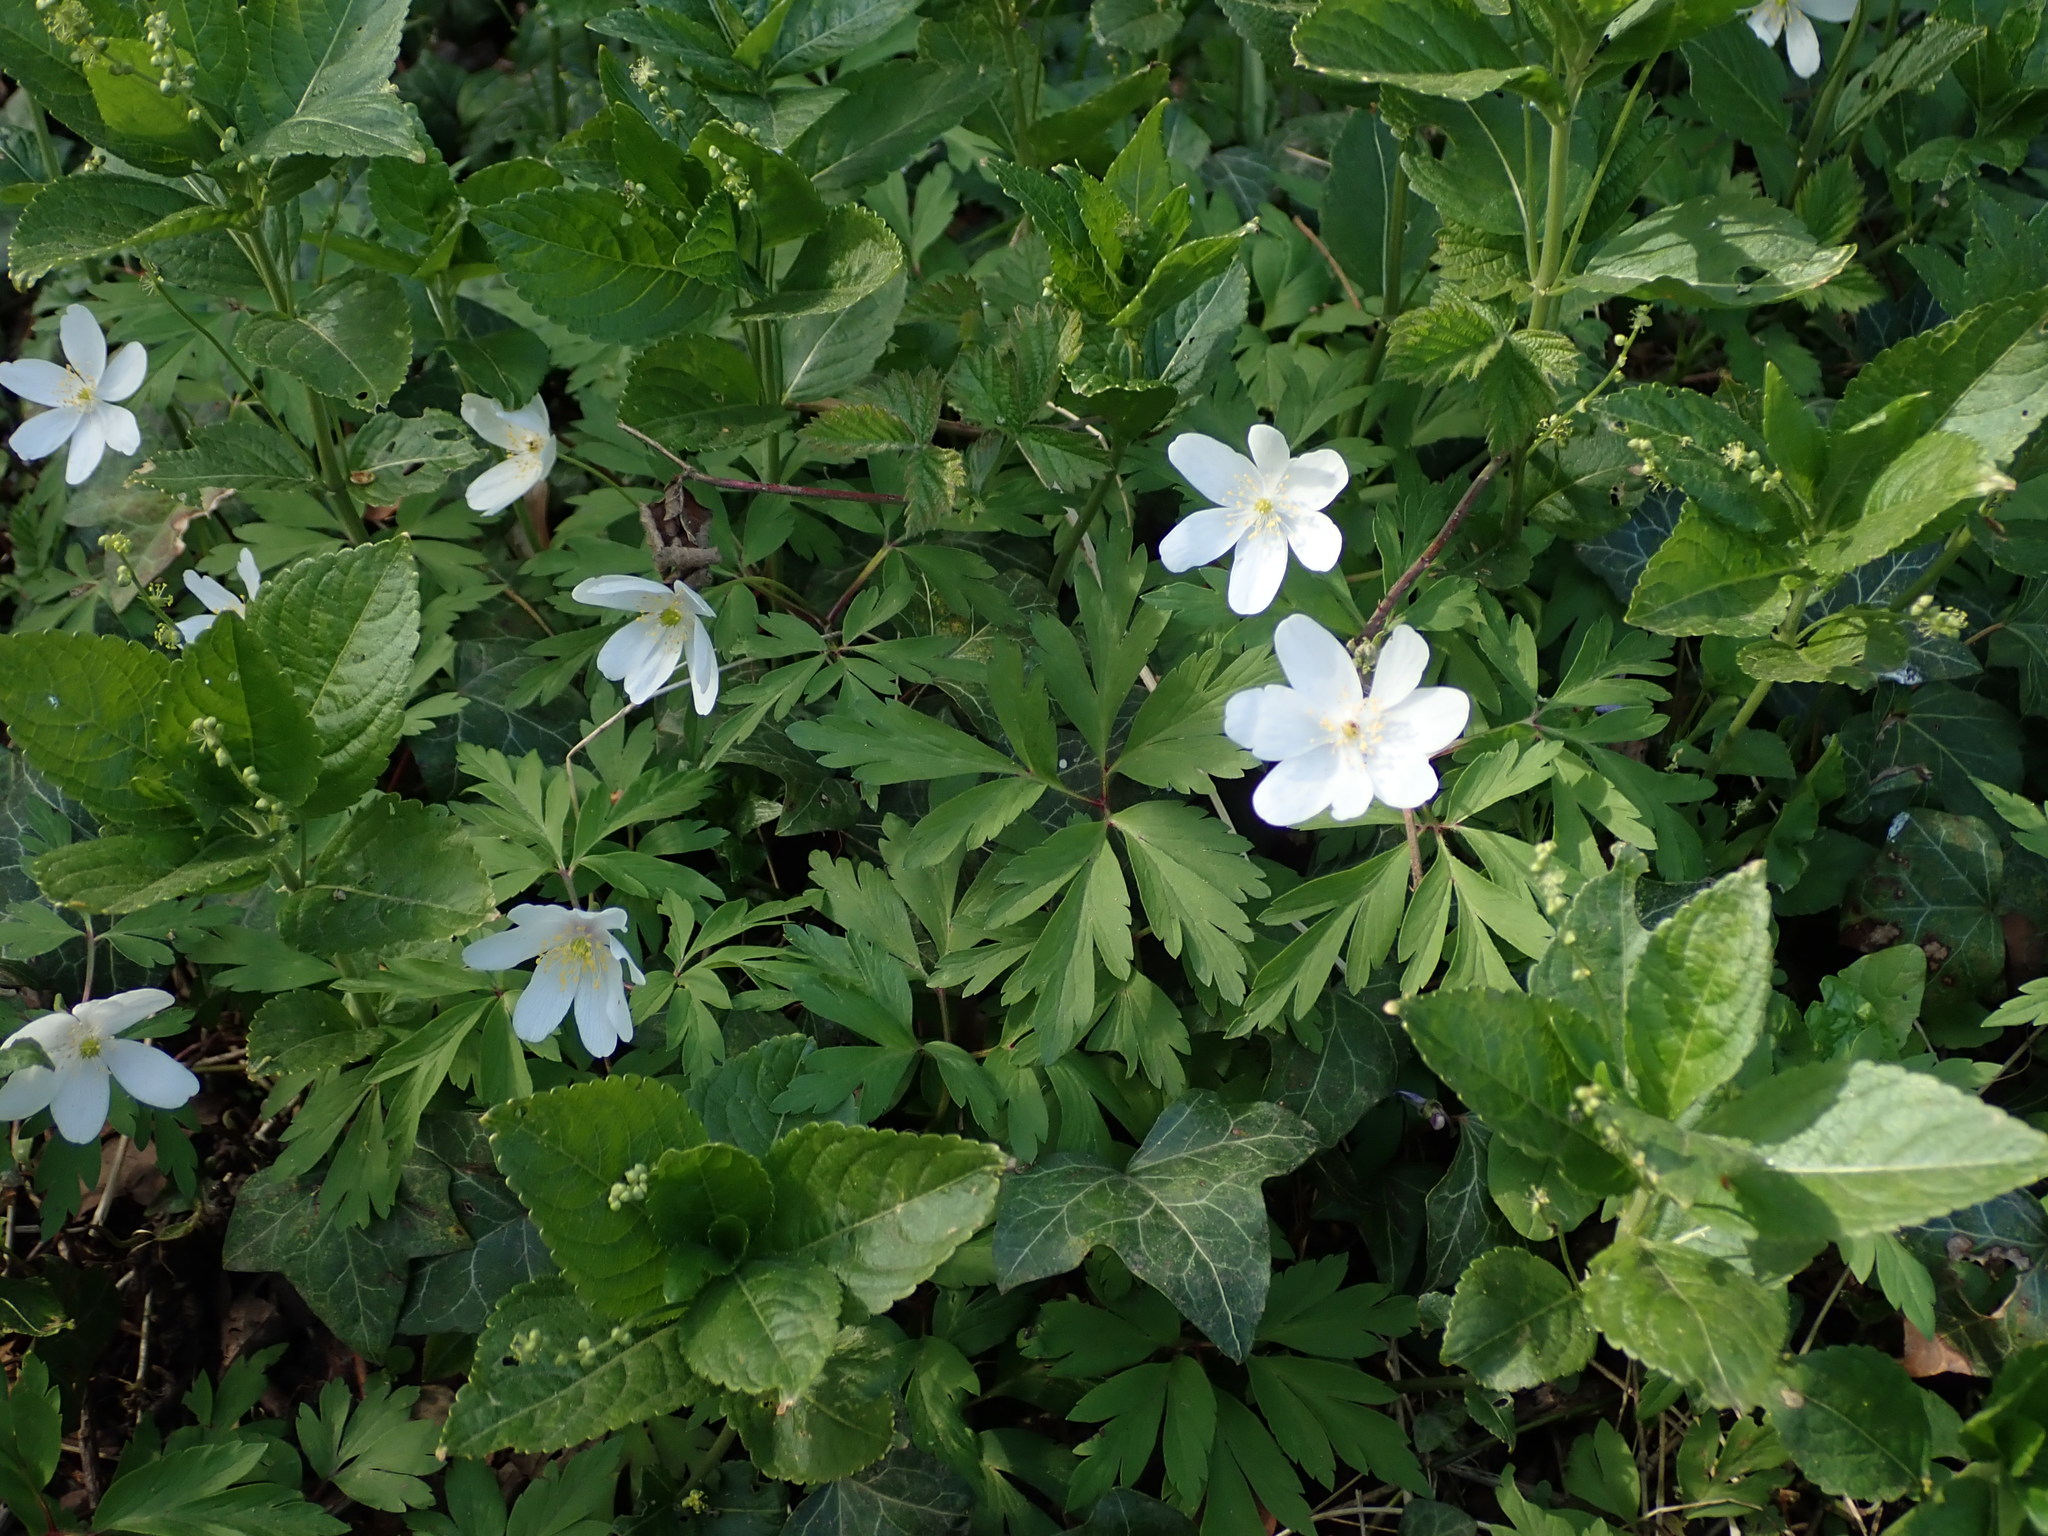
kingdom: Plantae
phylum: Tracheophyta
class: Magnoliopsida
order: Ranunculales
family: Ranunculaceae
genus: Anemone
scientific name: Anemone nemorosa
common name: Wood anemone
